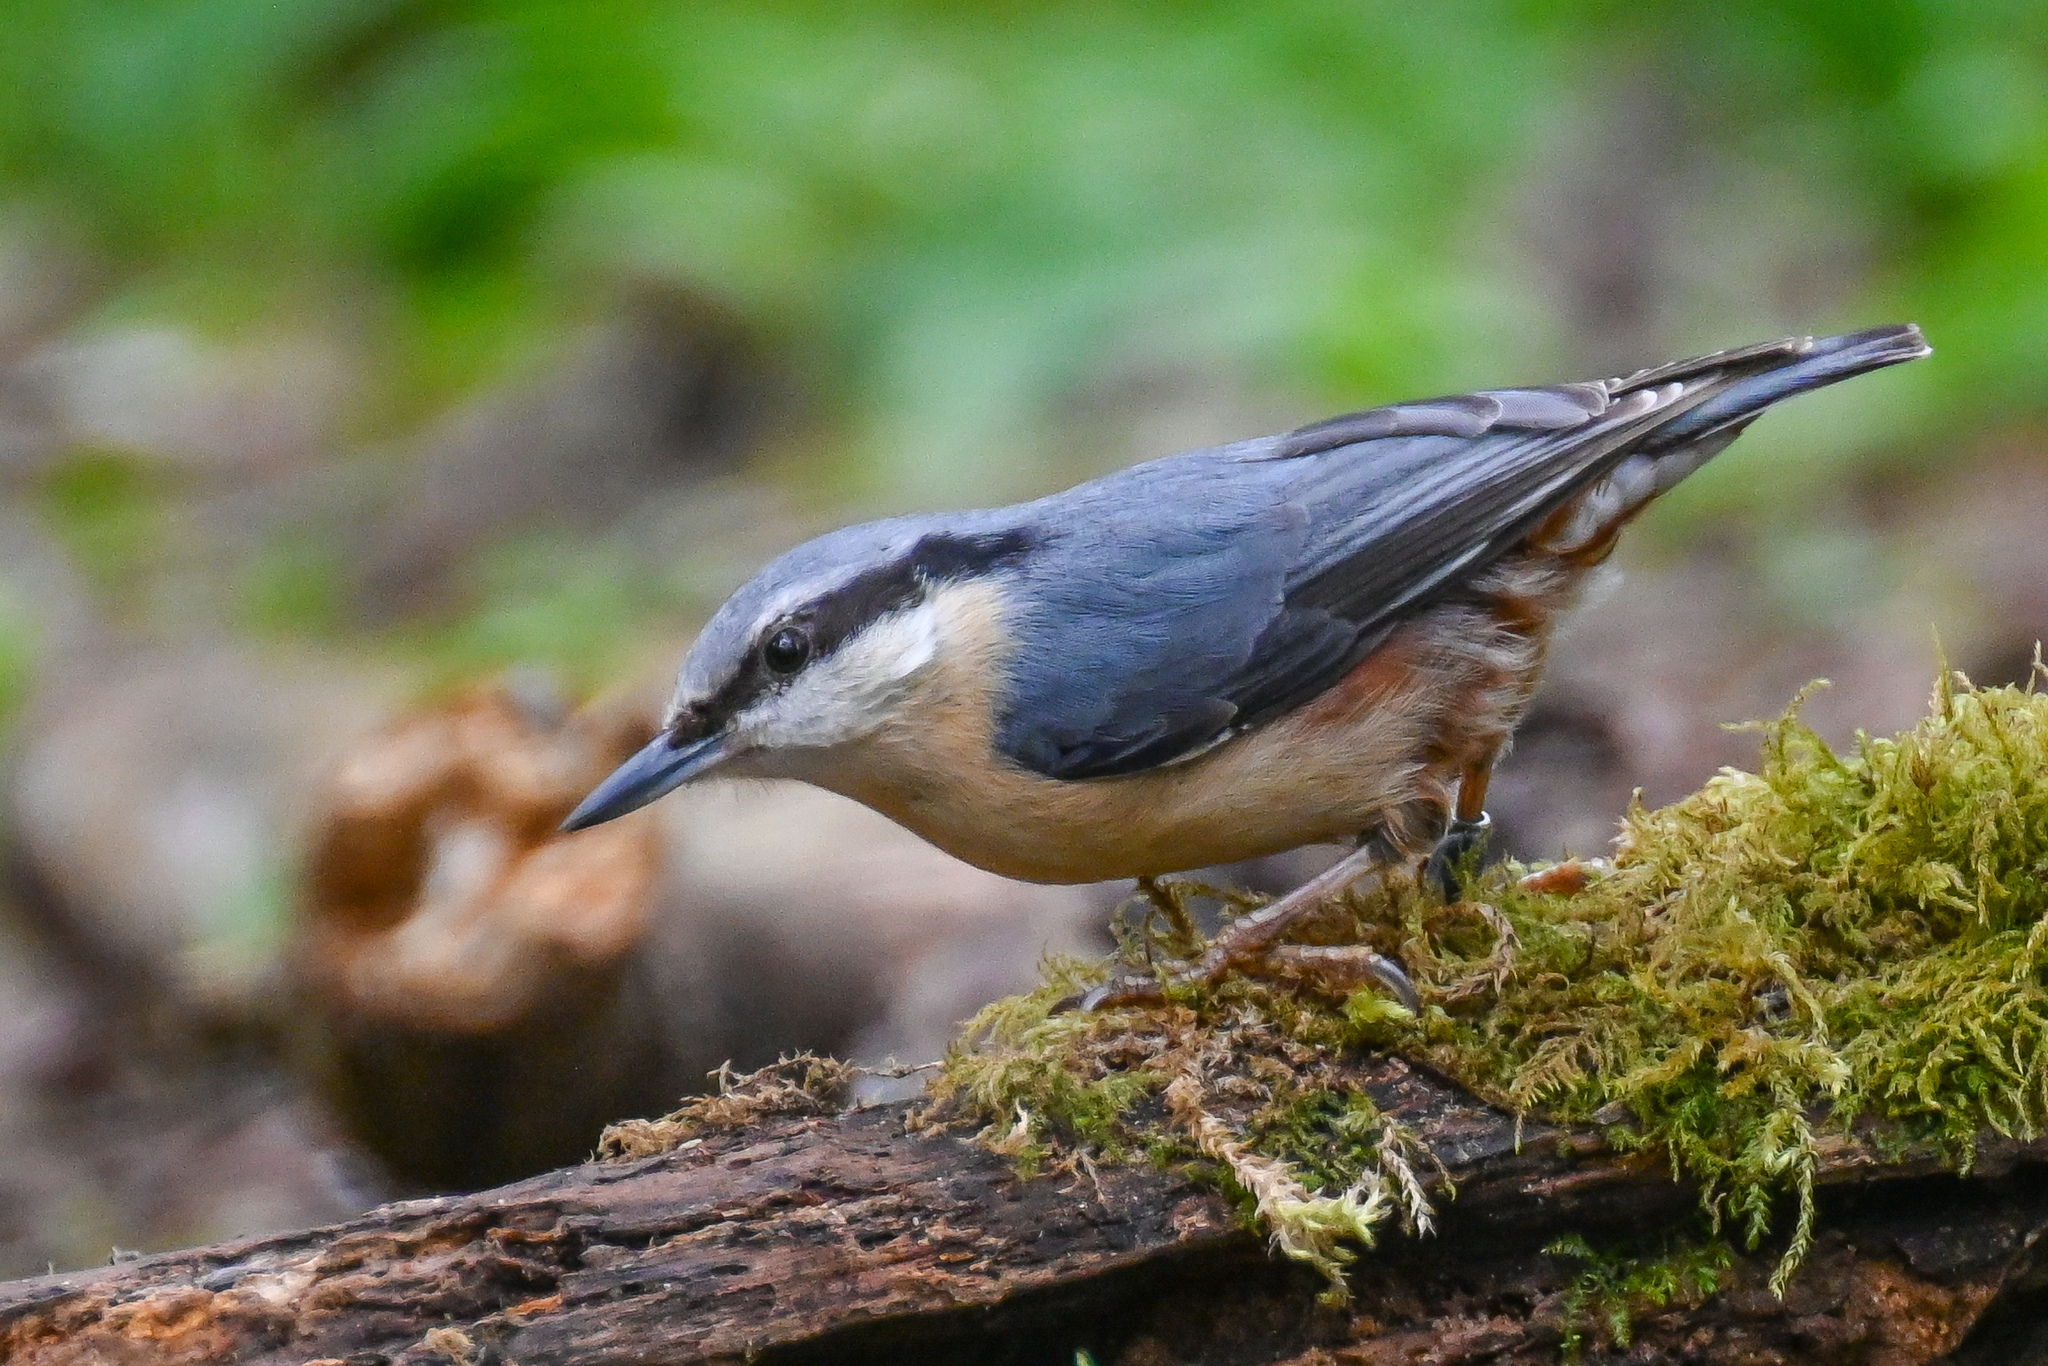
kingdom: Animalia
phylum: Chordata
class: Aves
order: Passeriformes
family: Sittidae
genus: Sitta
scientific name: Sitta europaea
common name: Eurasian nuthatch
